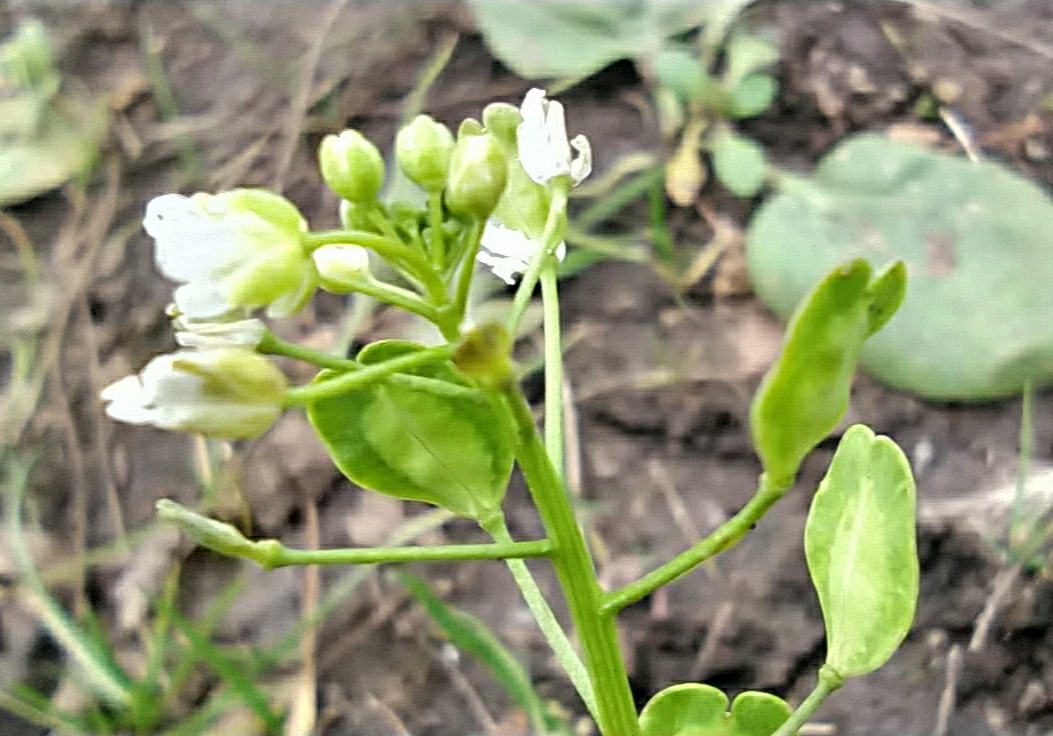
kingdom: Plantae
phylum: Tracheophyta
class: Magnoliopsida
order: Brassicales
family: Brassicaceae
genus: Thlaspi
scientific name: Thlaspi arvense
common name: Field pennycress
